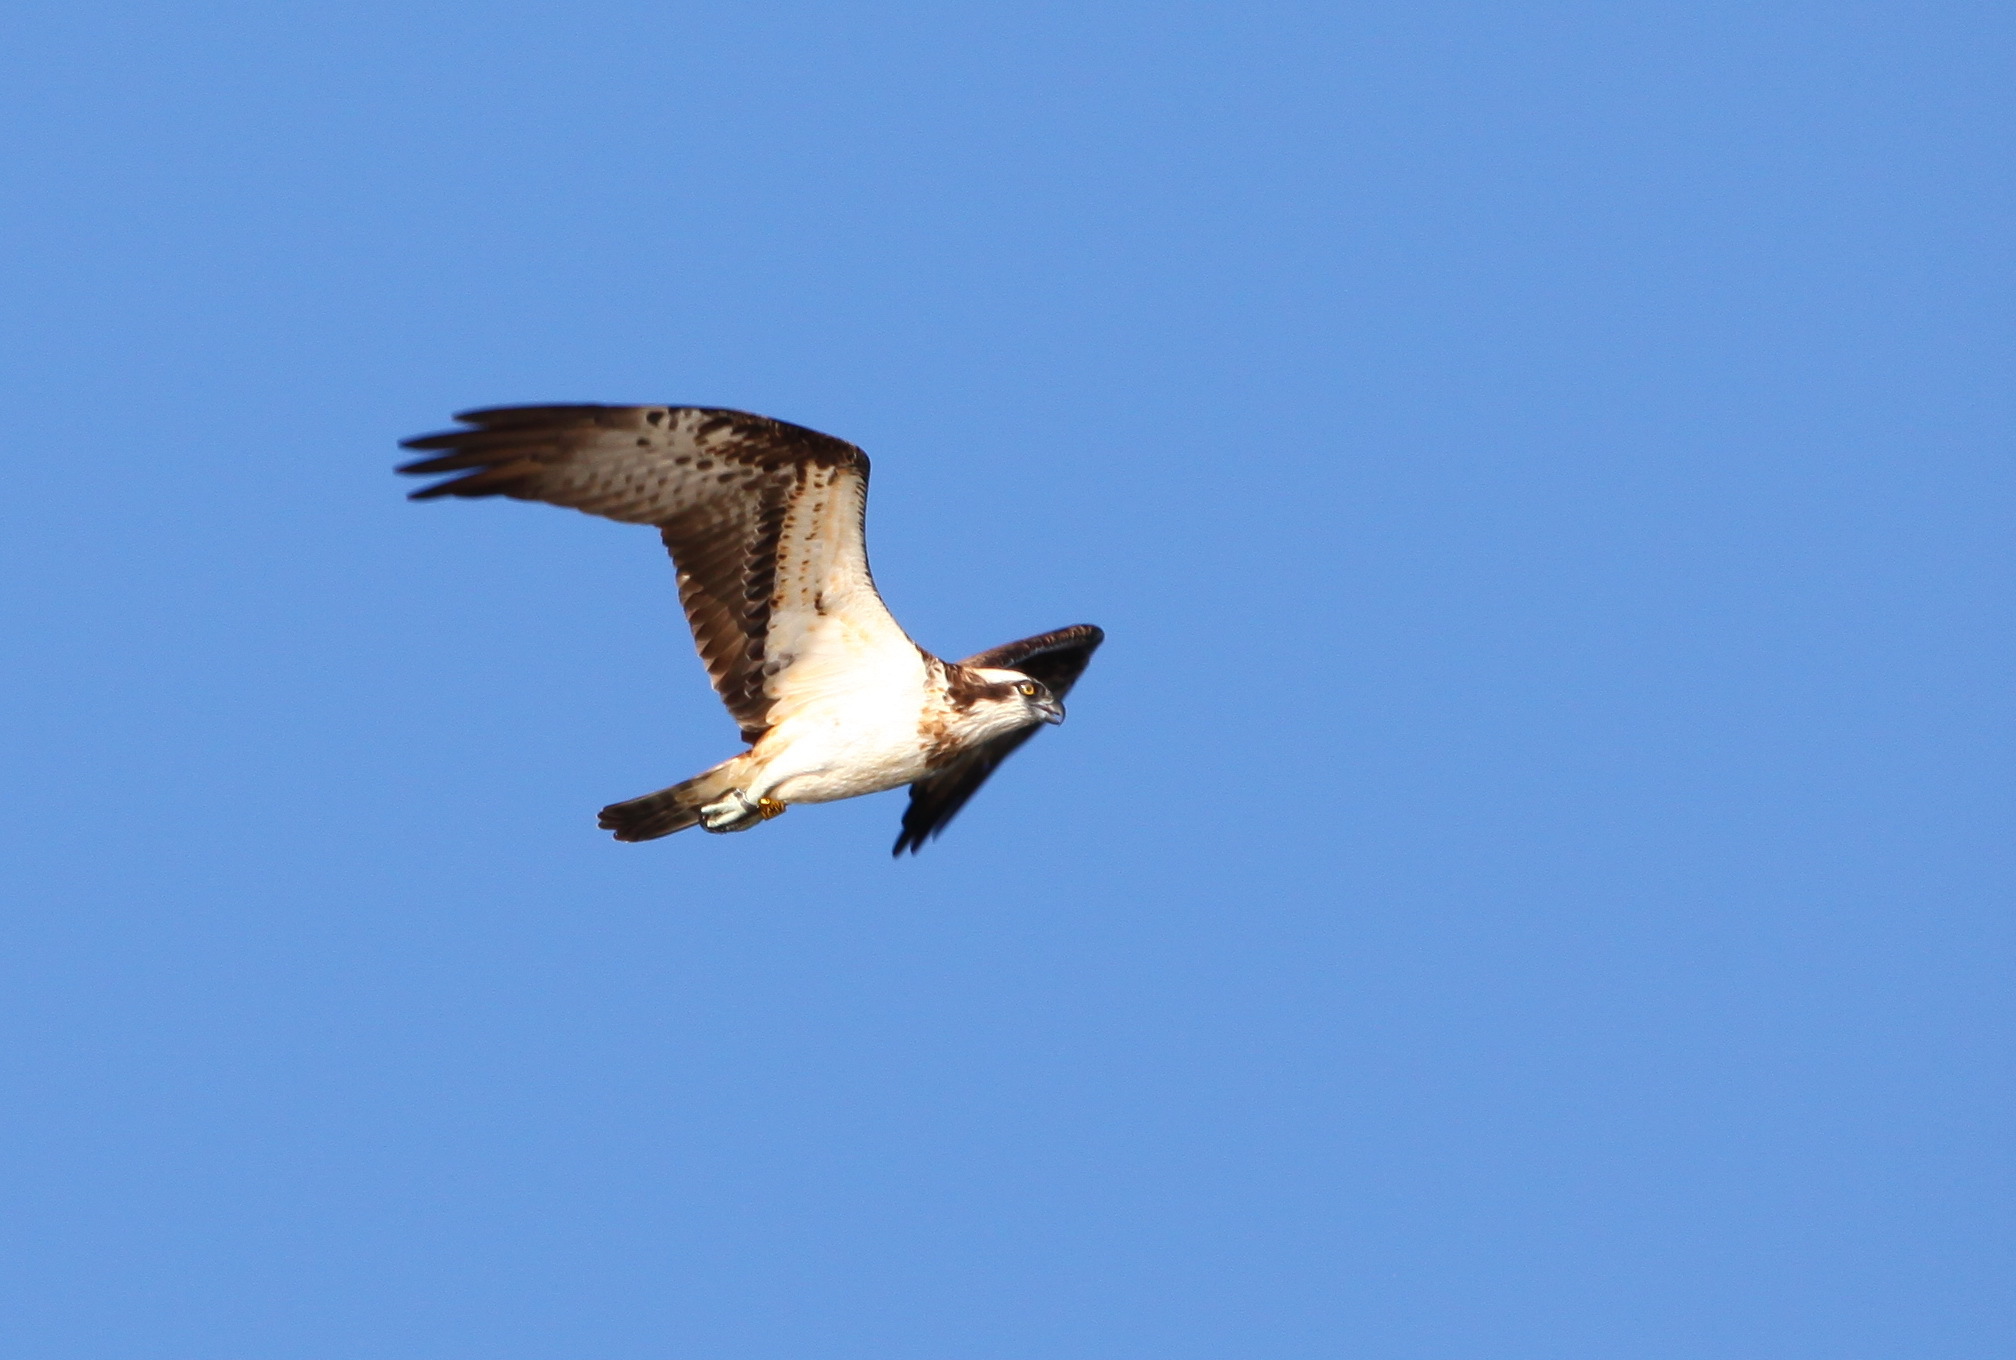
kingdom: Animalia
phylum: Chordata
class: Aves
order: Accipitriformes
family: Pandionidae
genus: Pandion
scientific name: Pandion haliaetus
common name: Osprey
